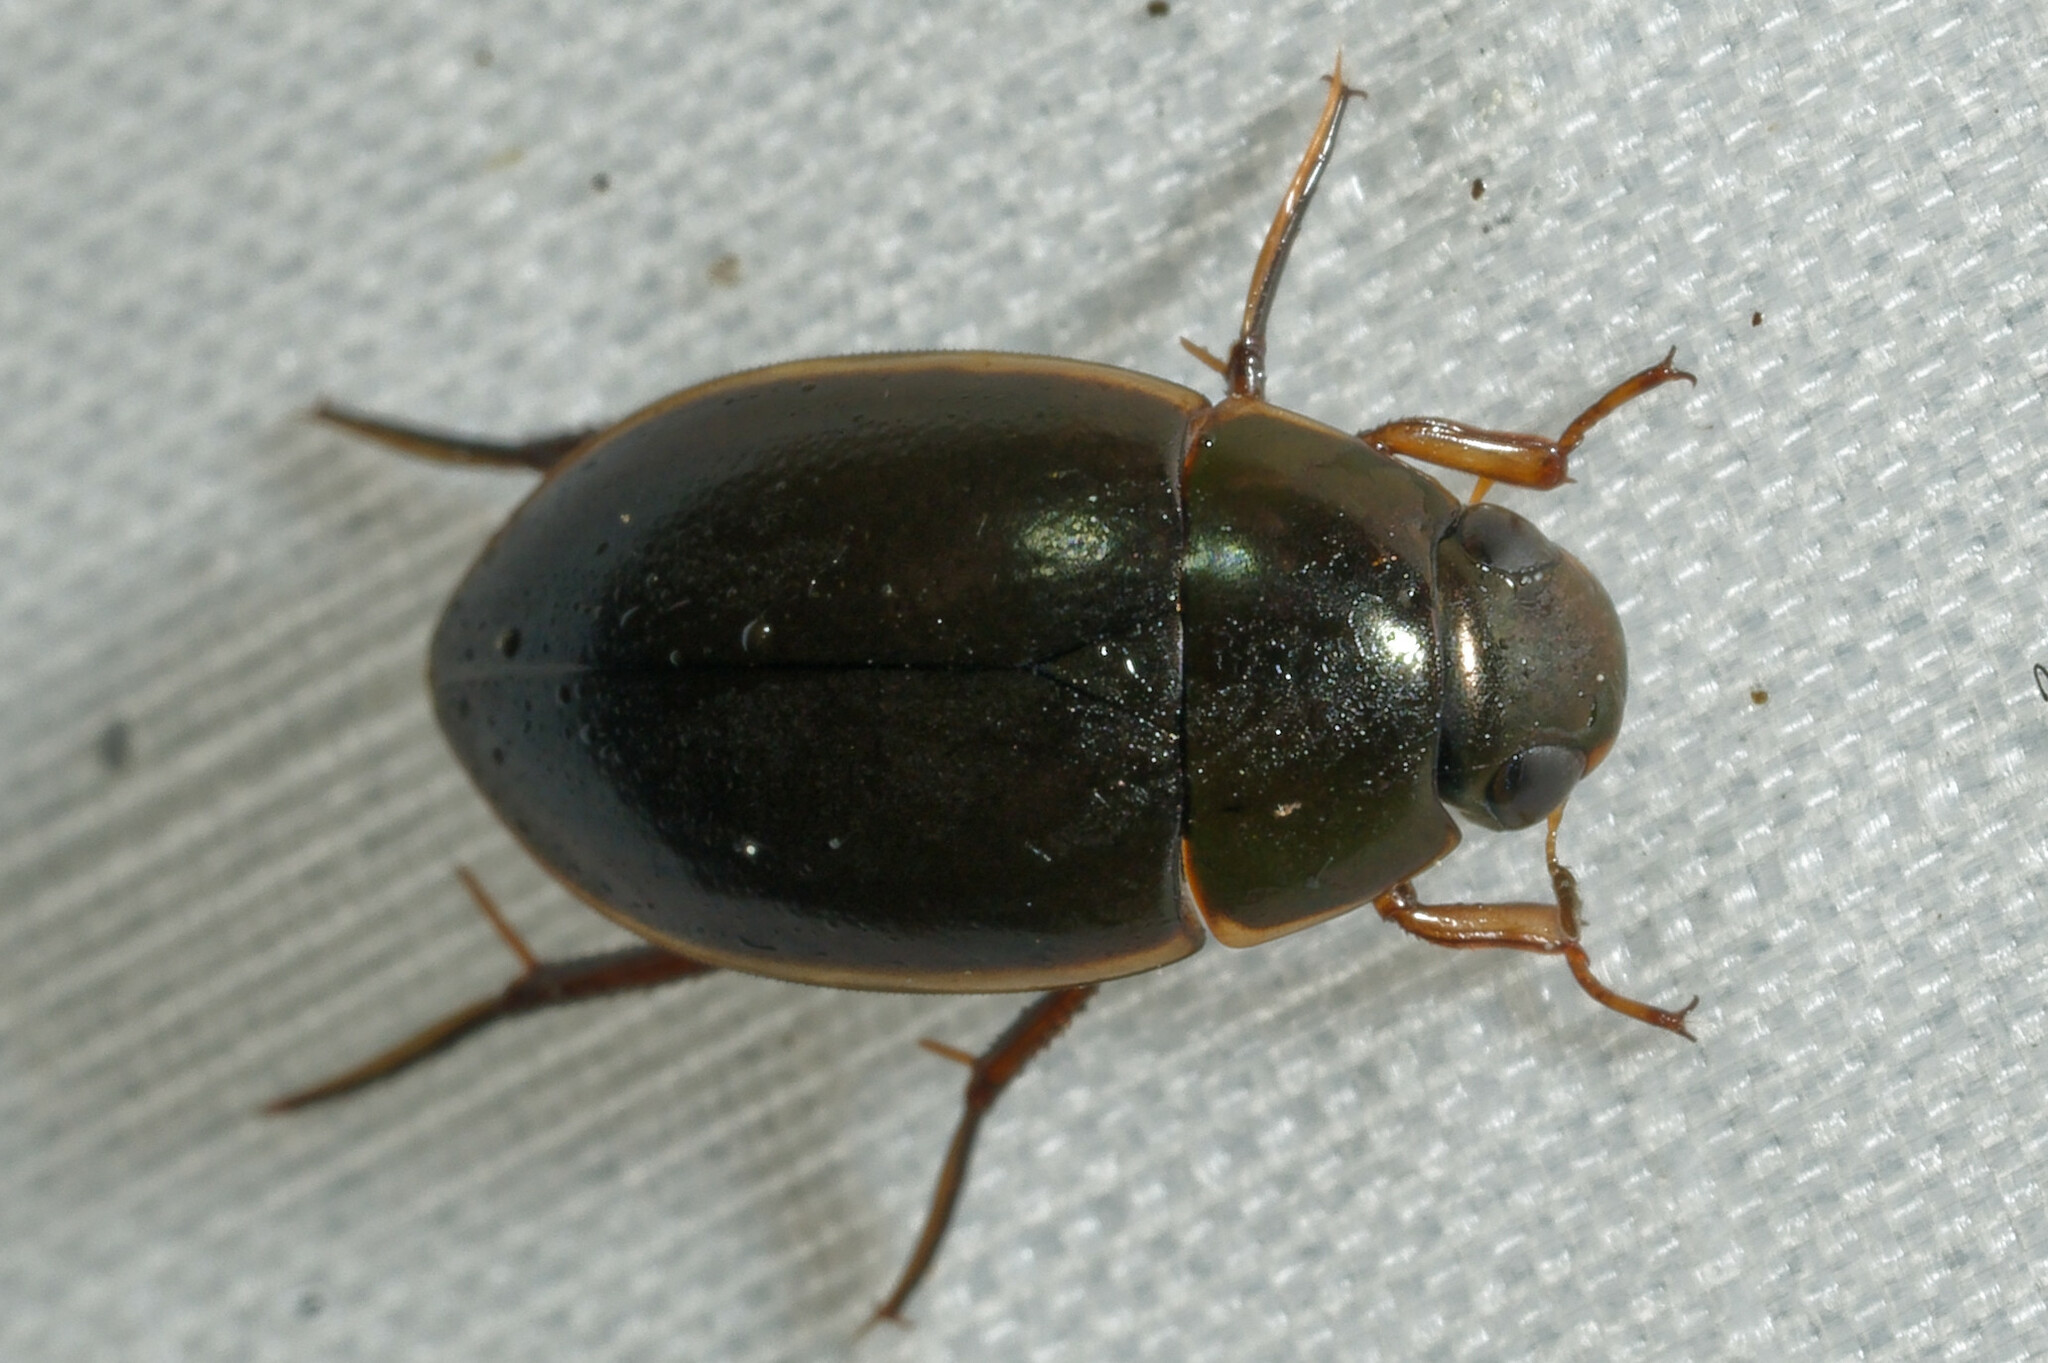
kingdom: Animalia
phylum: Arthropoda
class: Insecta
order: Coleoptera
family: Hydrophilidae
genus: Tropisternus
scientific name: Tropisternus lateralis
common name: Lateral-banded water scavenger beetle
